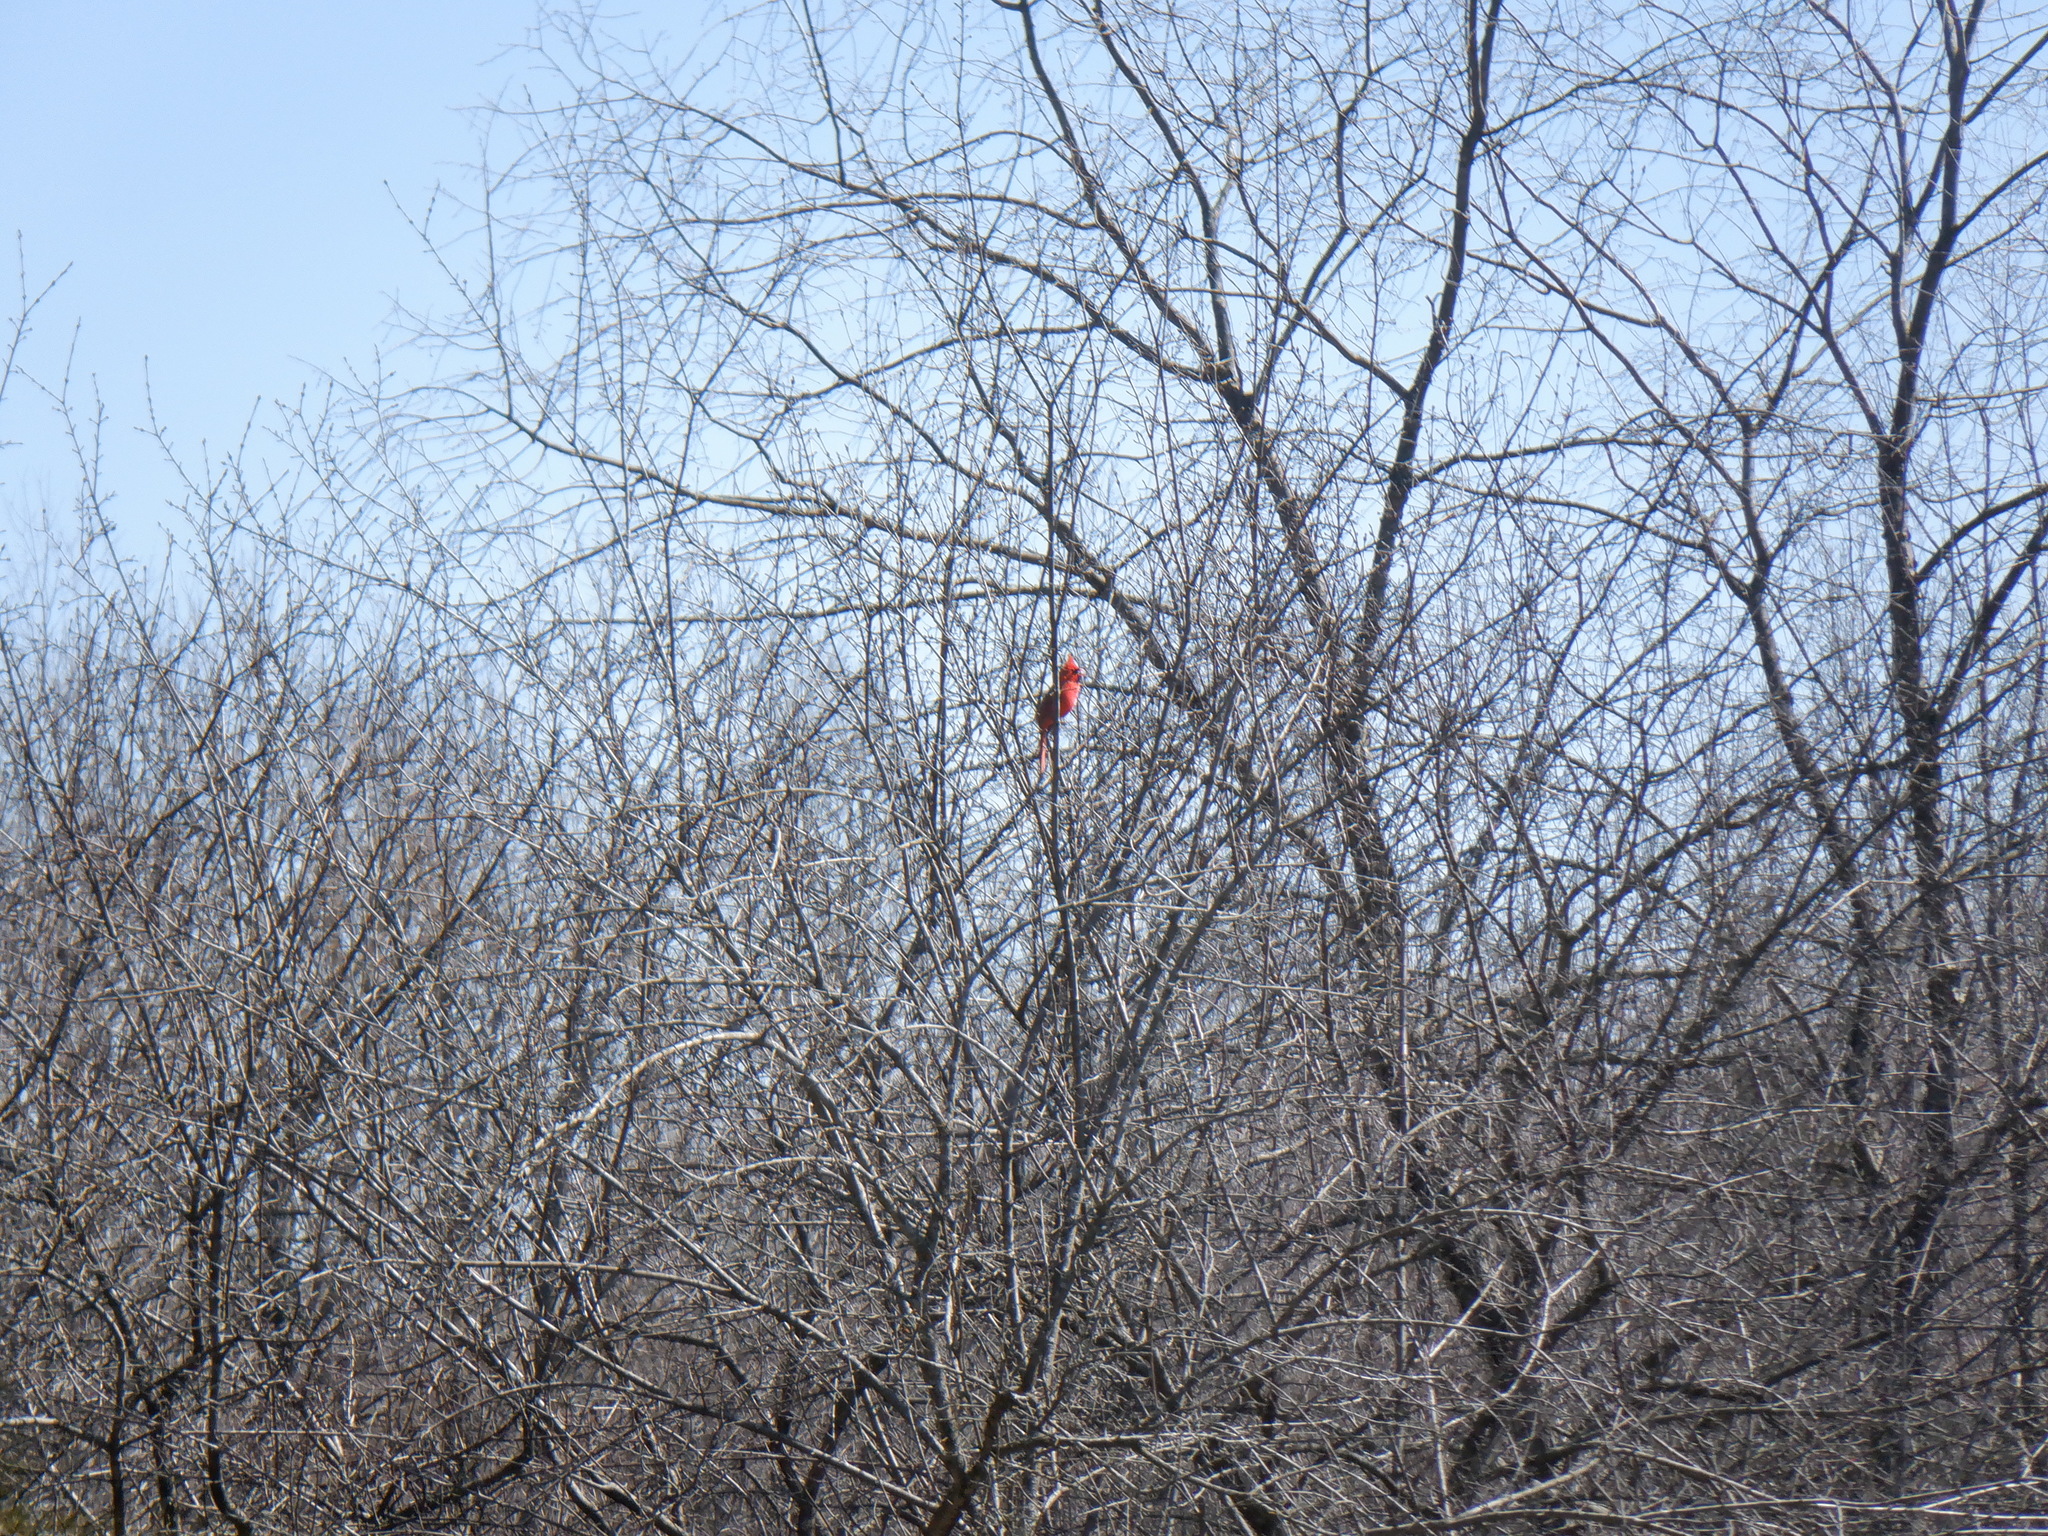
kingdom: Animalia
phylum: Chordata
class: Aves
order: Passeriformes
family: Cardinalidae
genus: Cardinalis
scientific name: Cardinalis cardinalis
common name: Northern cardinal
